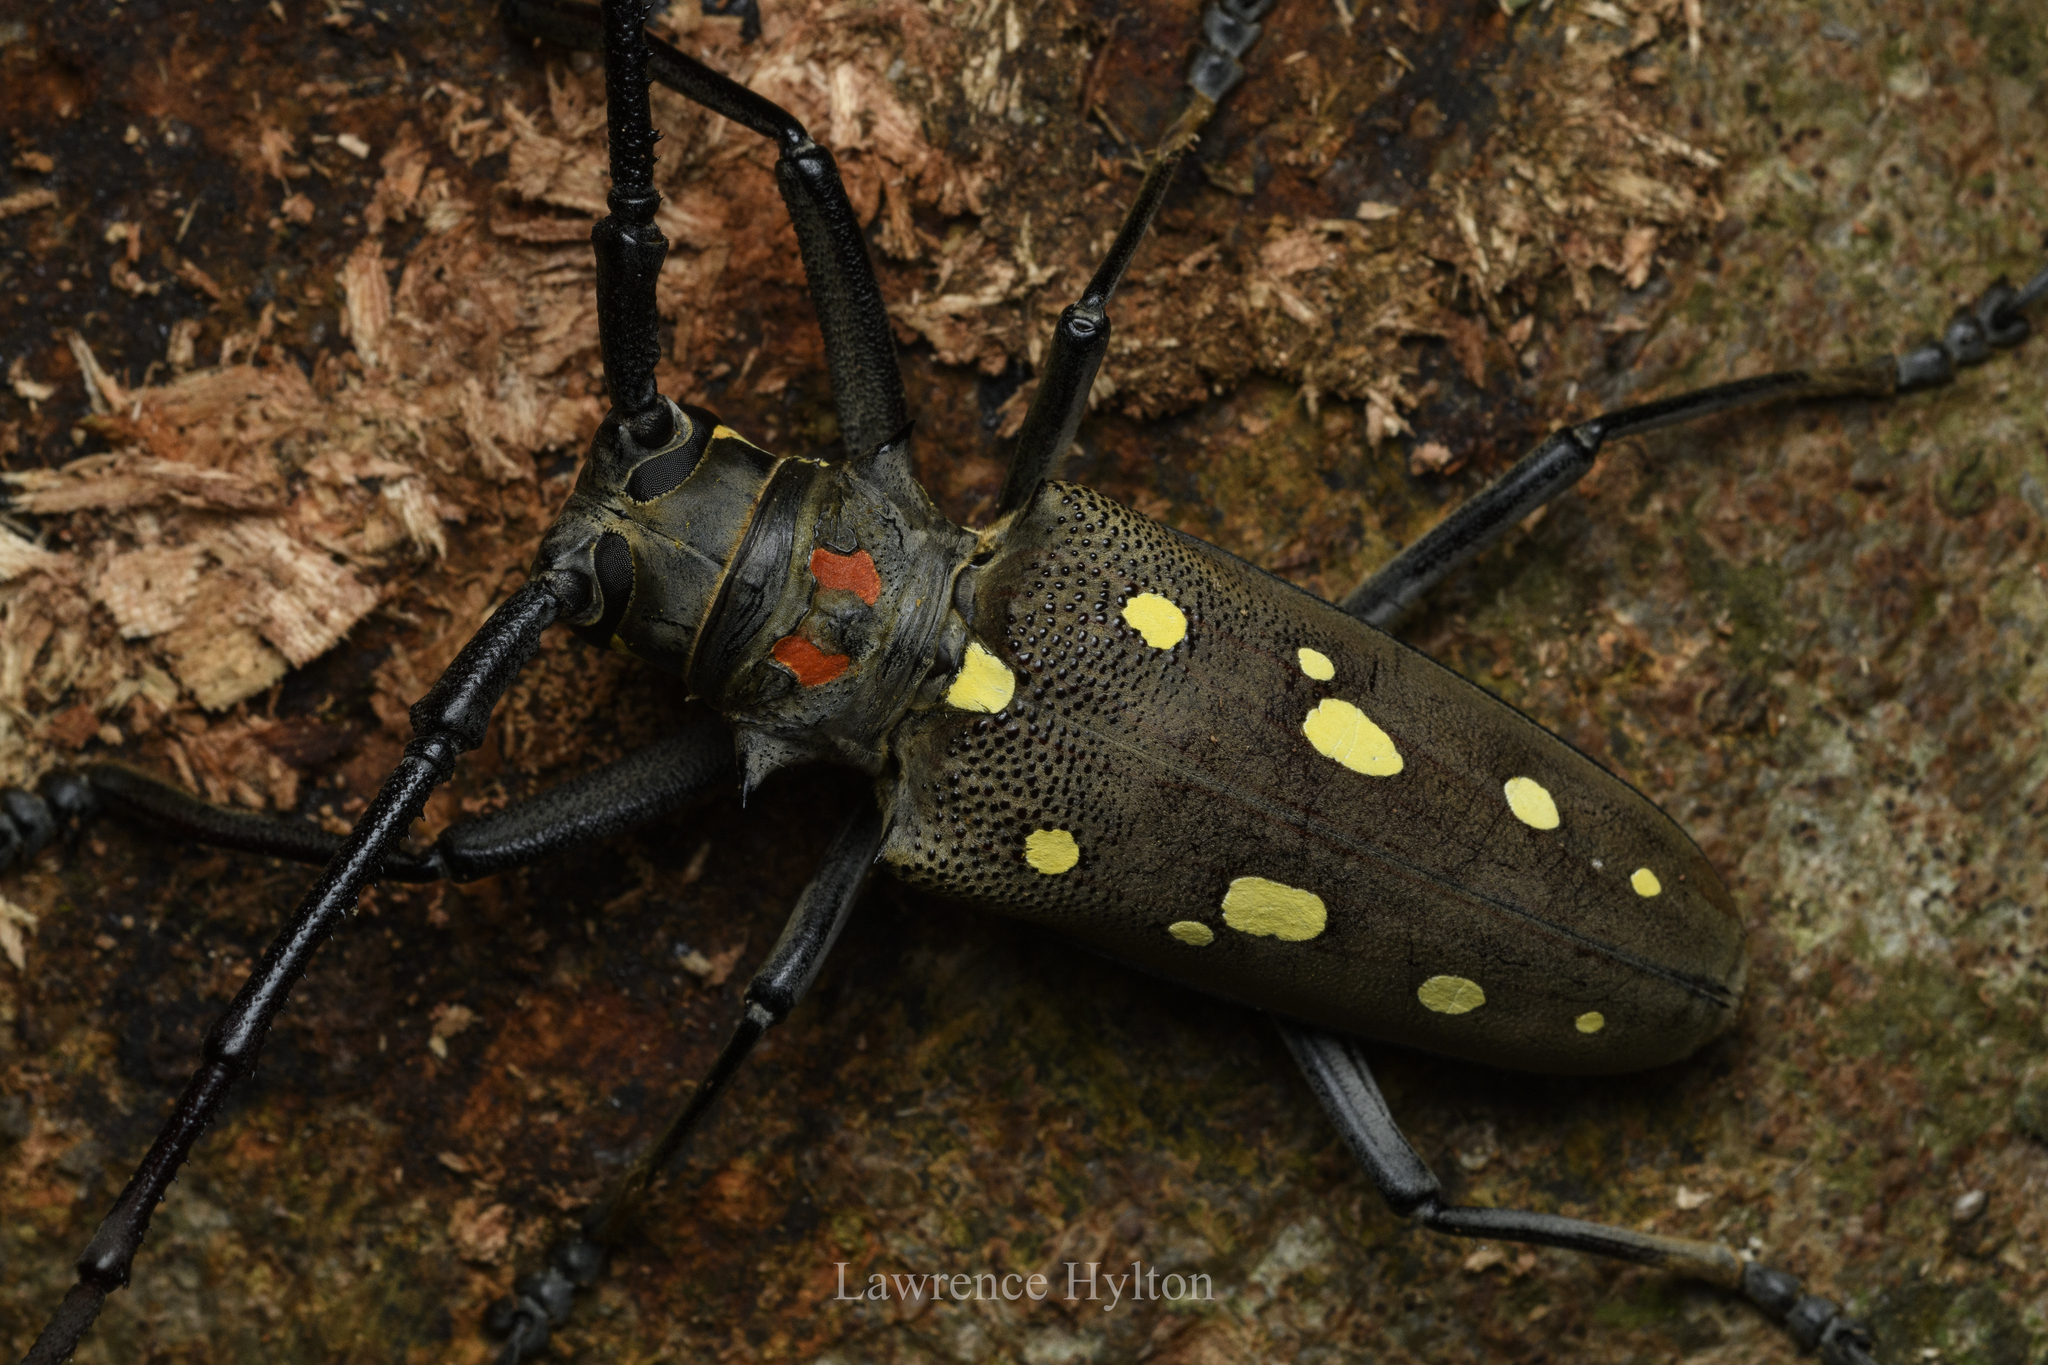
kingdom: Animalia
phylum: Arthropoda
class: Insecta
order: Coleoptera
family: Cerambycidae
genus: Batocera
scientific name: Batocera rubus
